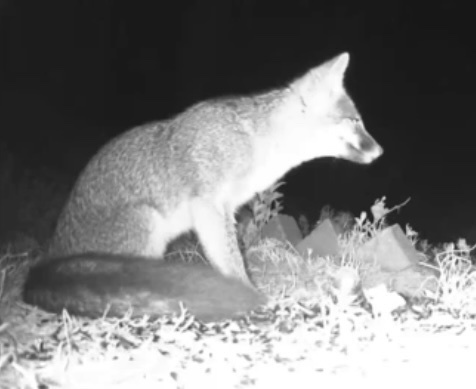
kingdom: Animalia
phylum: Chordata
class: Mammalia
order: Carnivora
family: Canidae
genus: Urocyon
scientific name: Urocyon cinereoargenteus
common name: Gray fox
